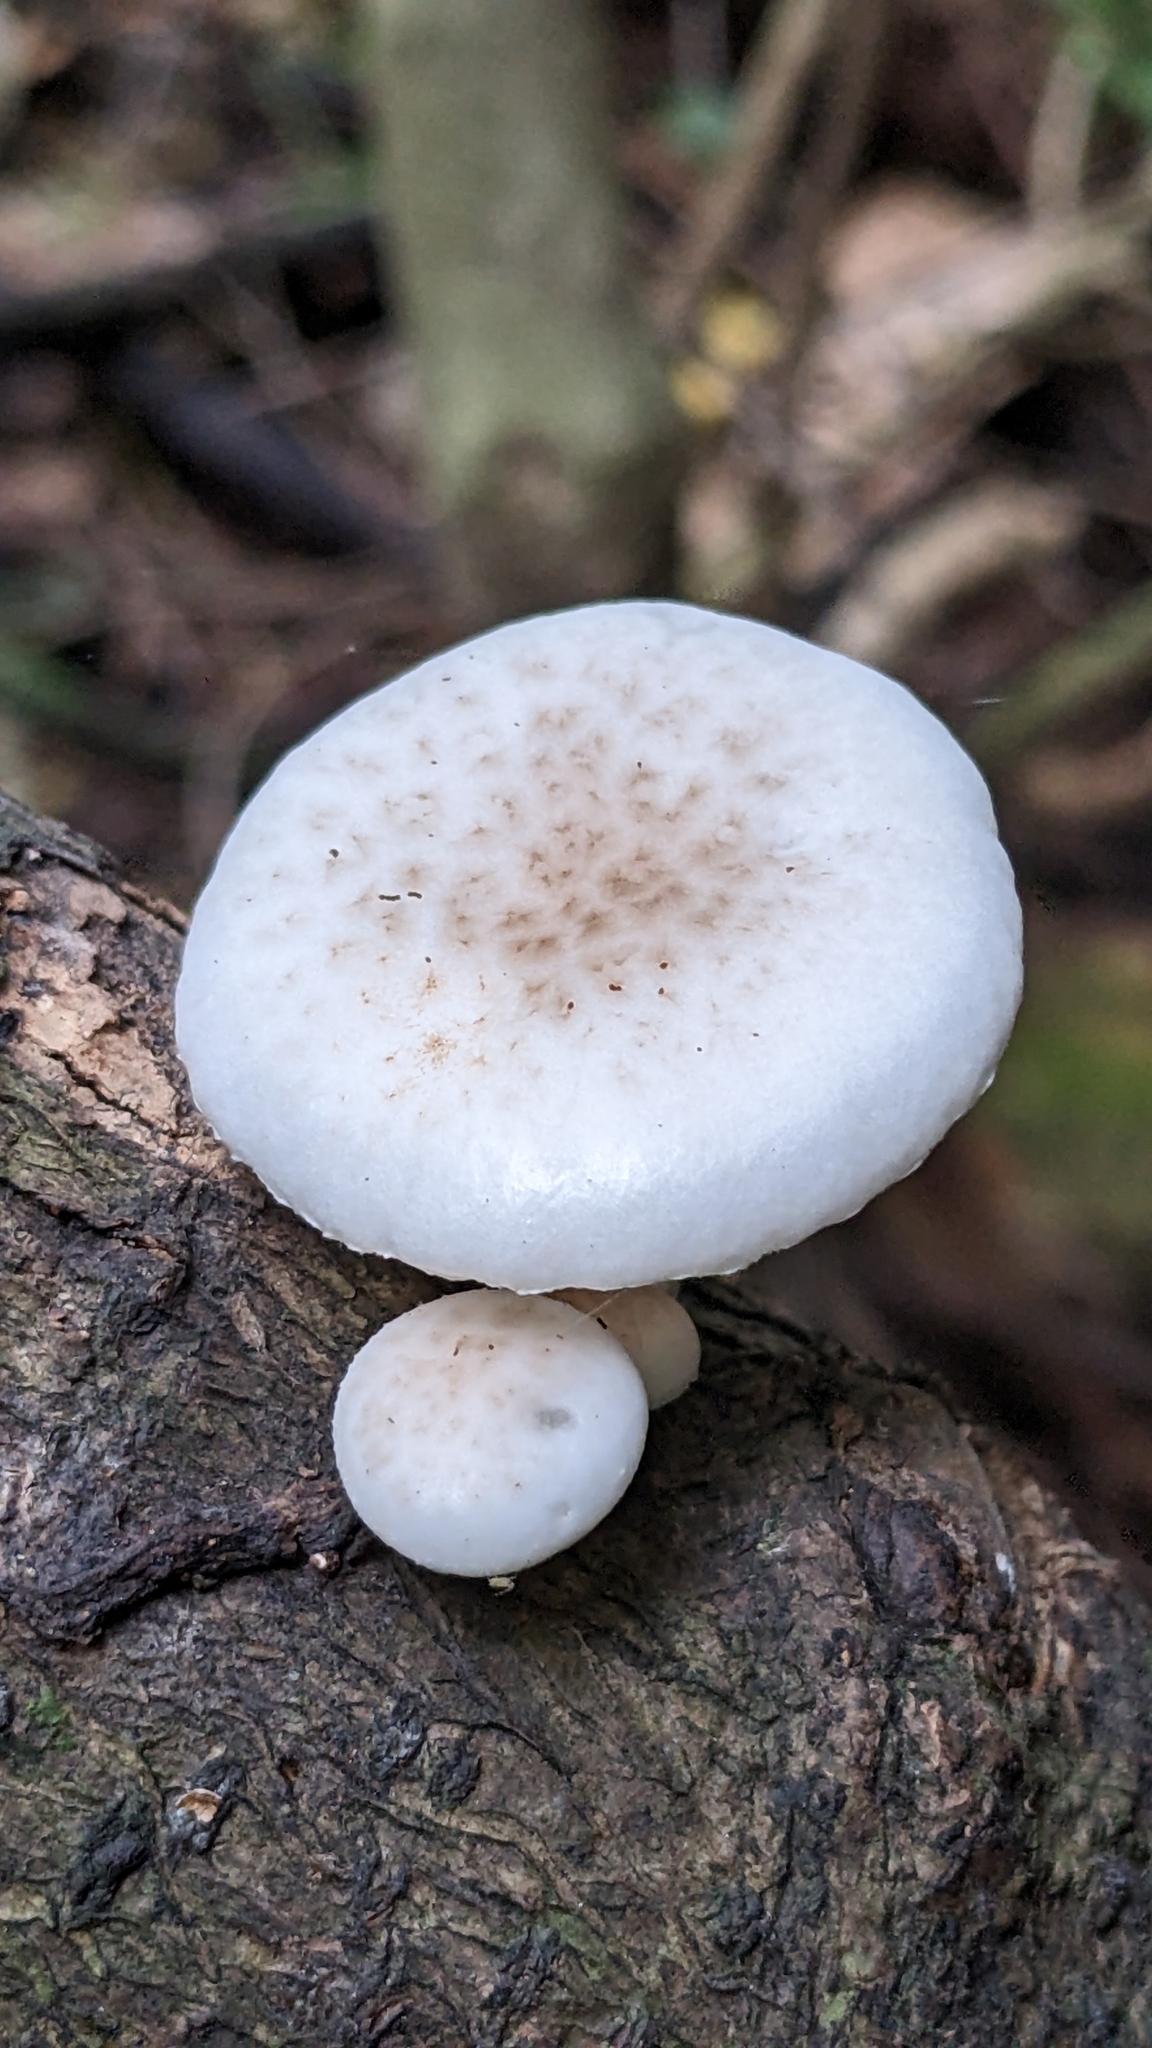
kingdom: Fungi
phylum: Basidiomycota
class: Agaricomycetes
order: Agaricales
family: Physalacriaceae
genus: Oudemansiella
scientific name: Oudemansiella australis
